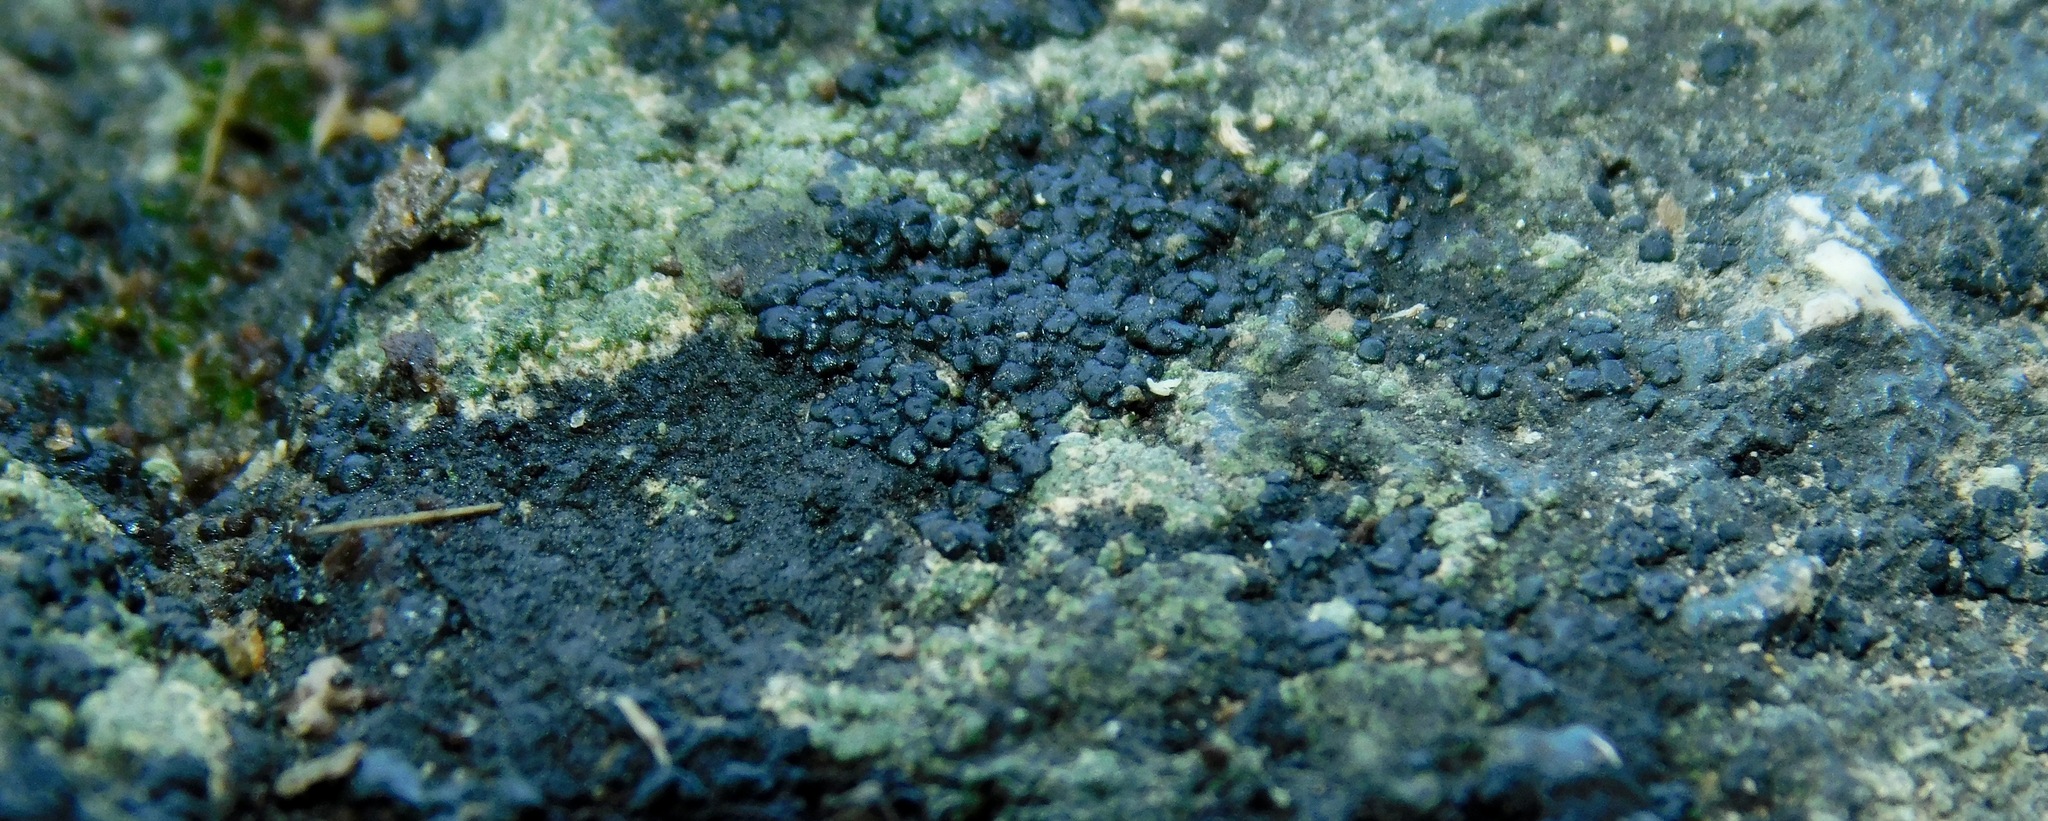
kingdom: Fungi
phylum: Ascomycota
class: Lichinomycetes
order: Lichinales
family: Peltulaceae
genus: Peltula
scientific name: Peltula placodizans
